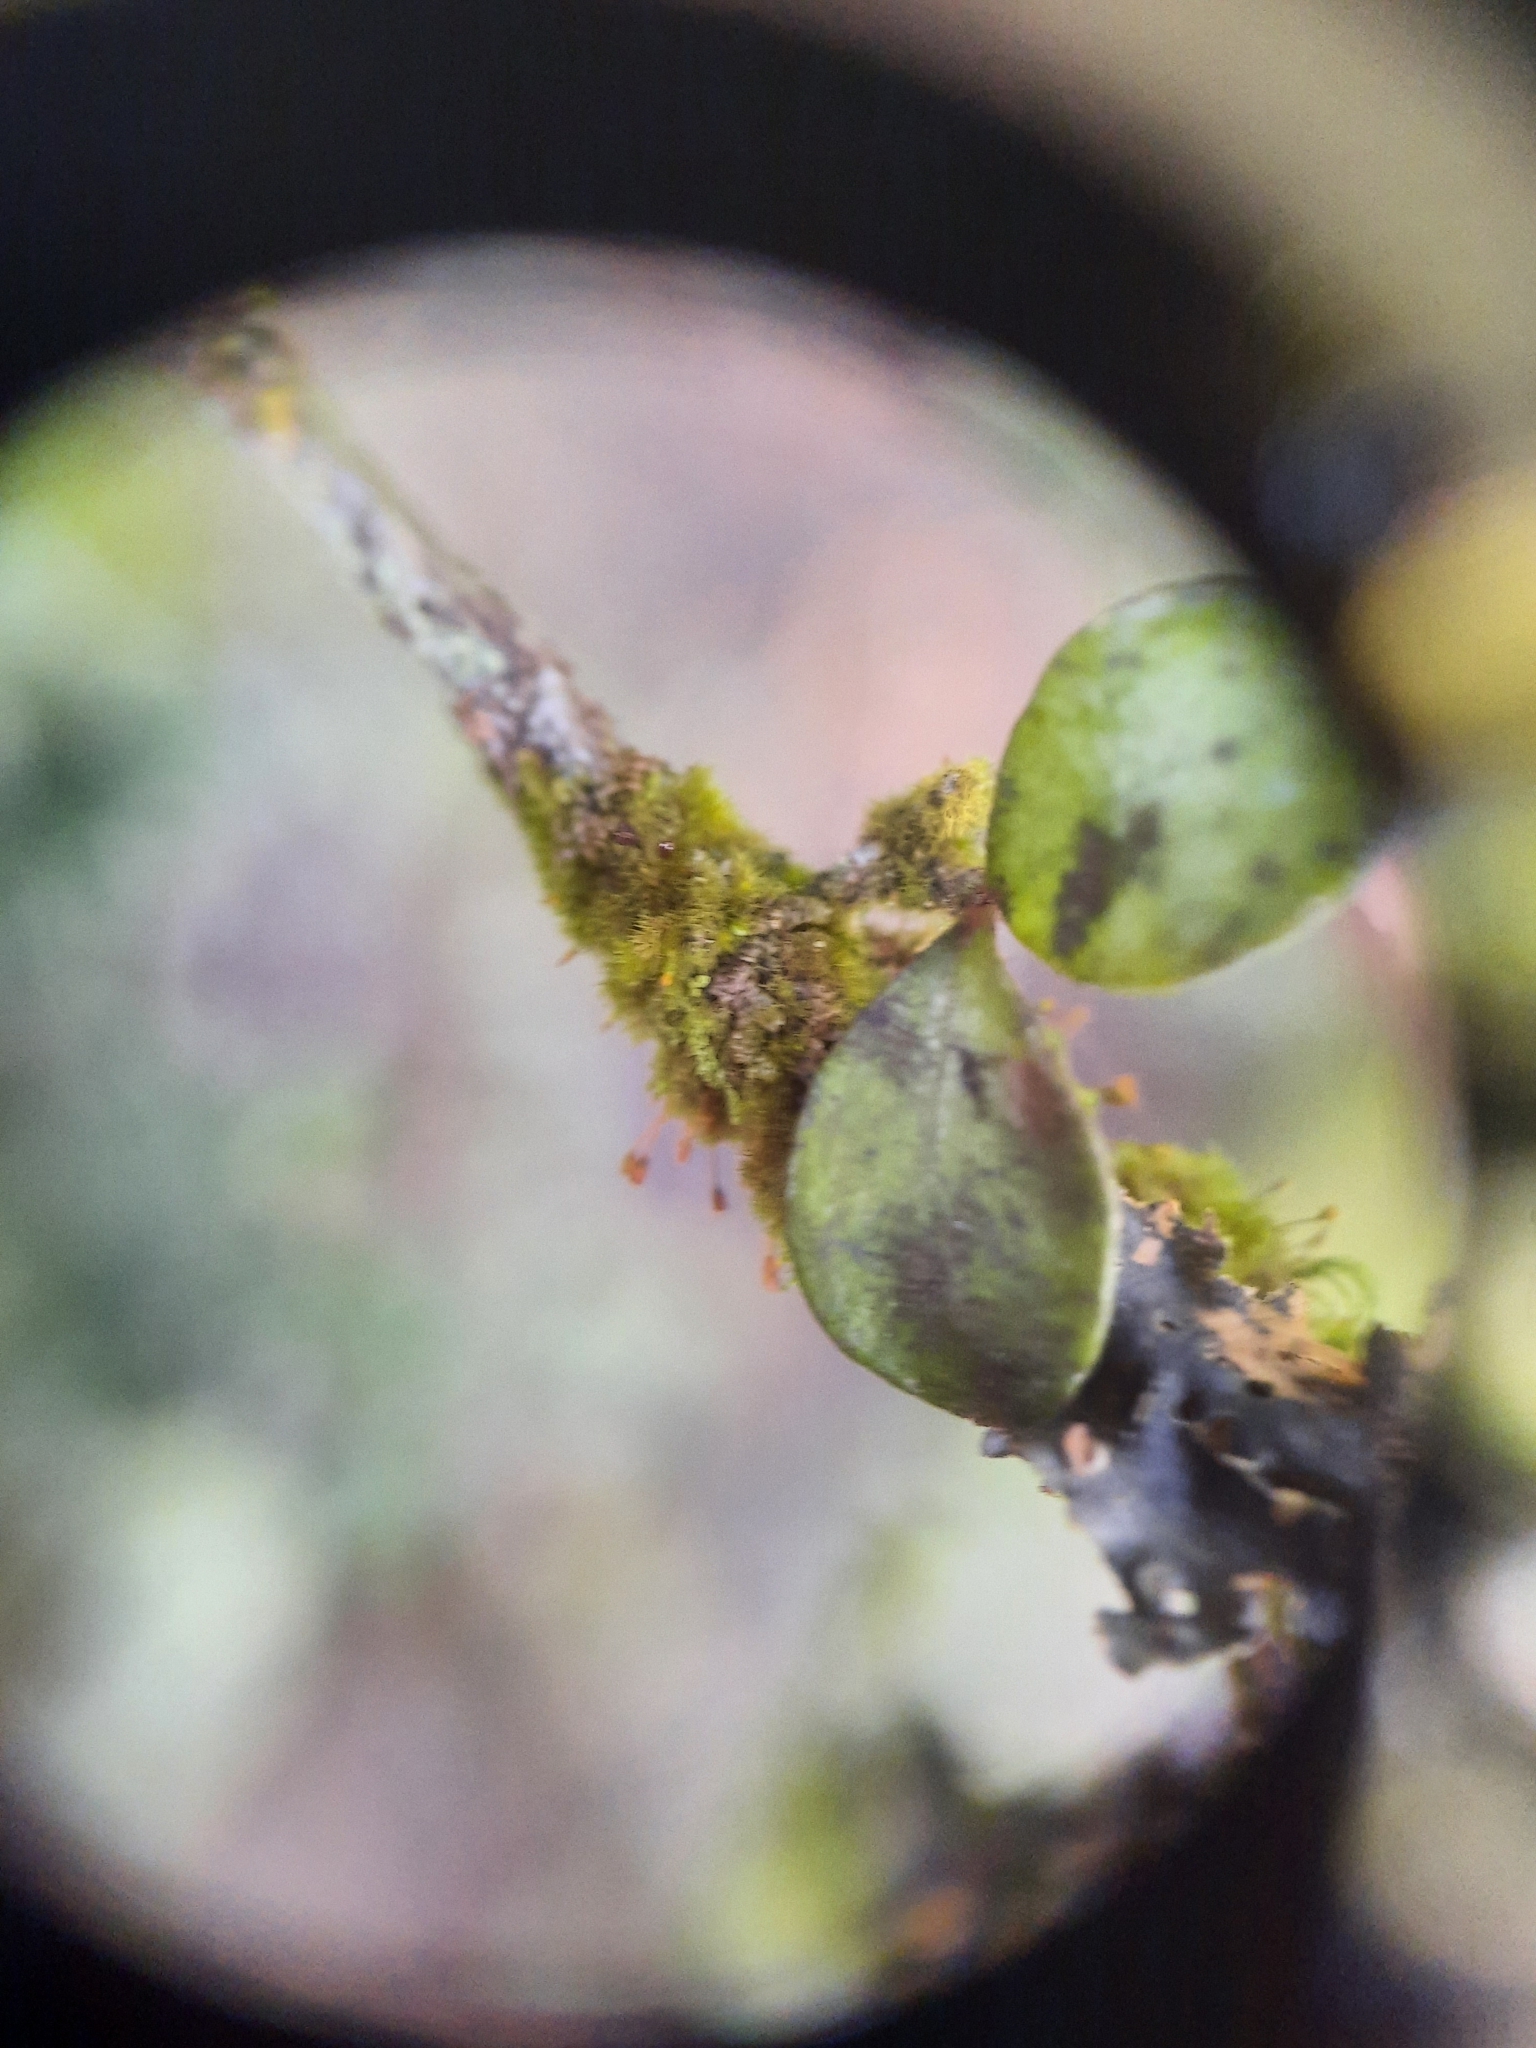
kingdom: Plantae
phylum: Bryophyta
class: Bryopsida
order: Hookeriales
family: Daltoniaceae
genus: Ephemeropsis
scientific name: Ephemeropsis trentepohlioides
